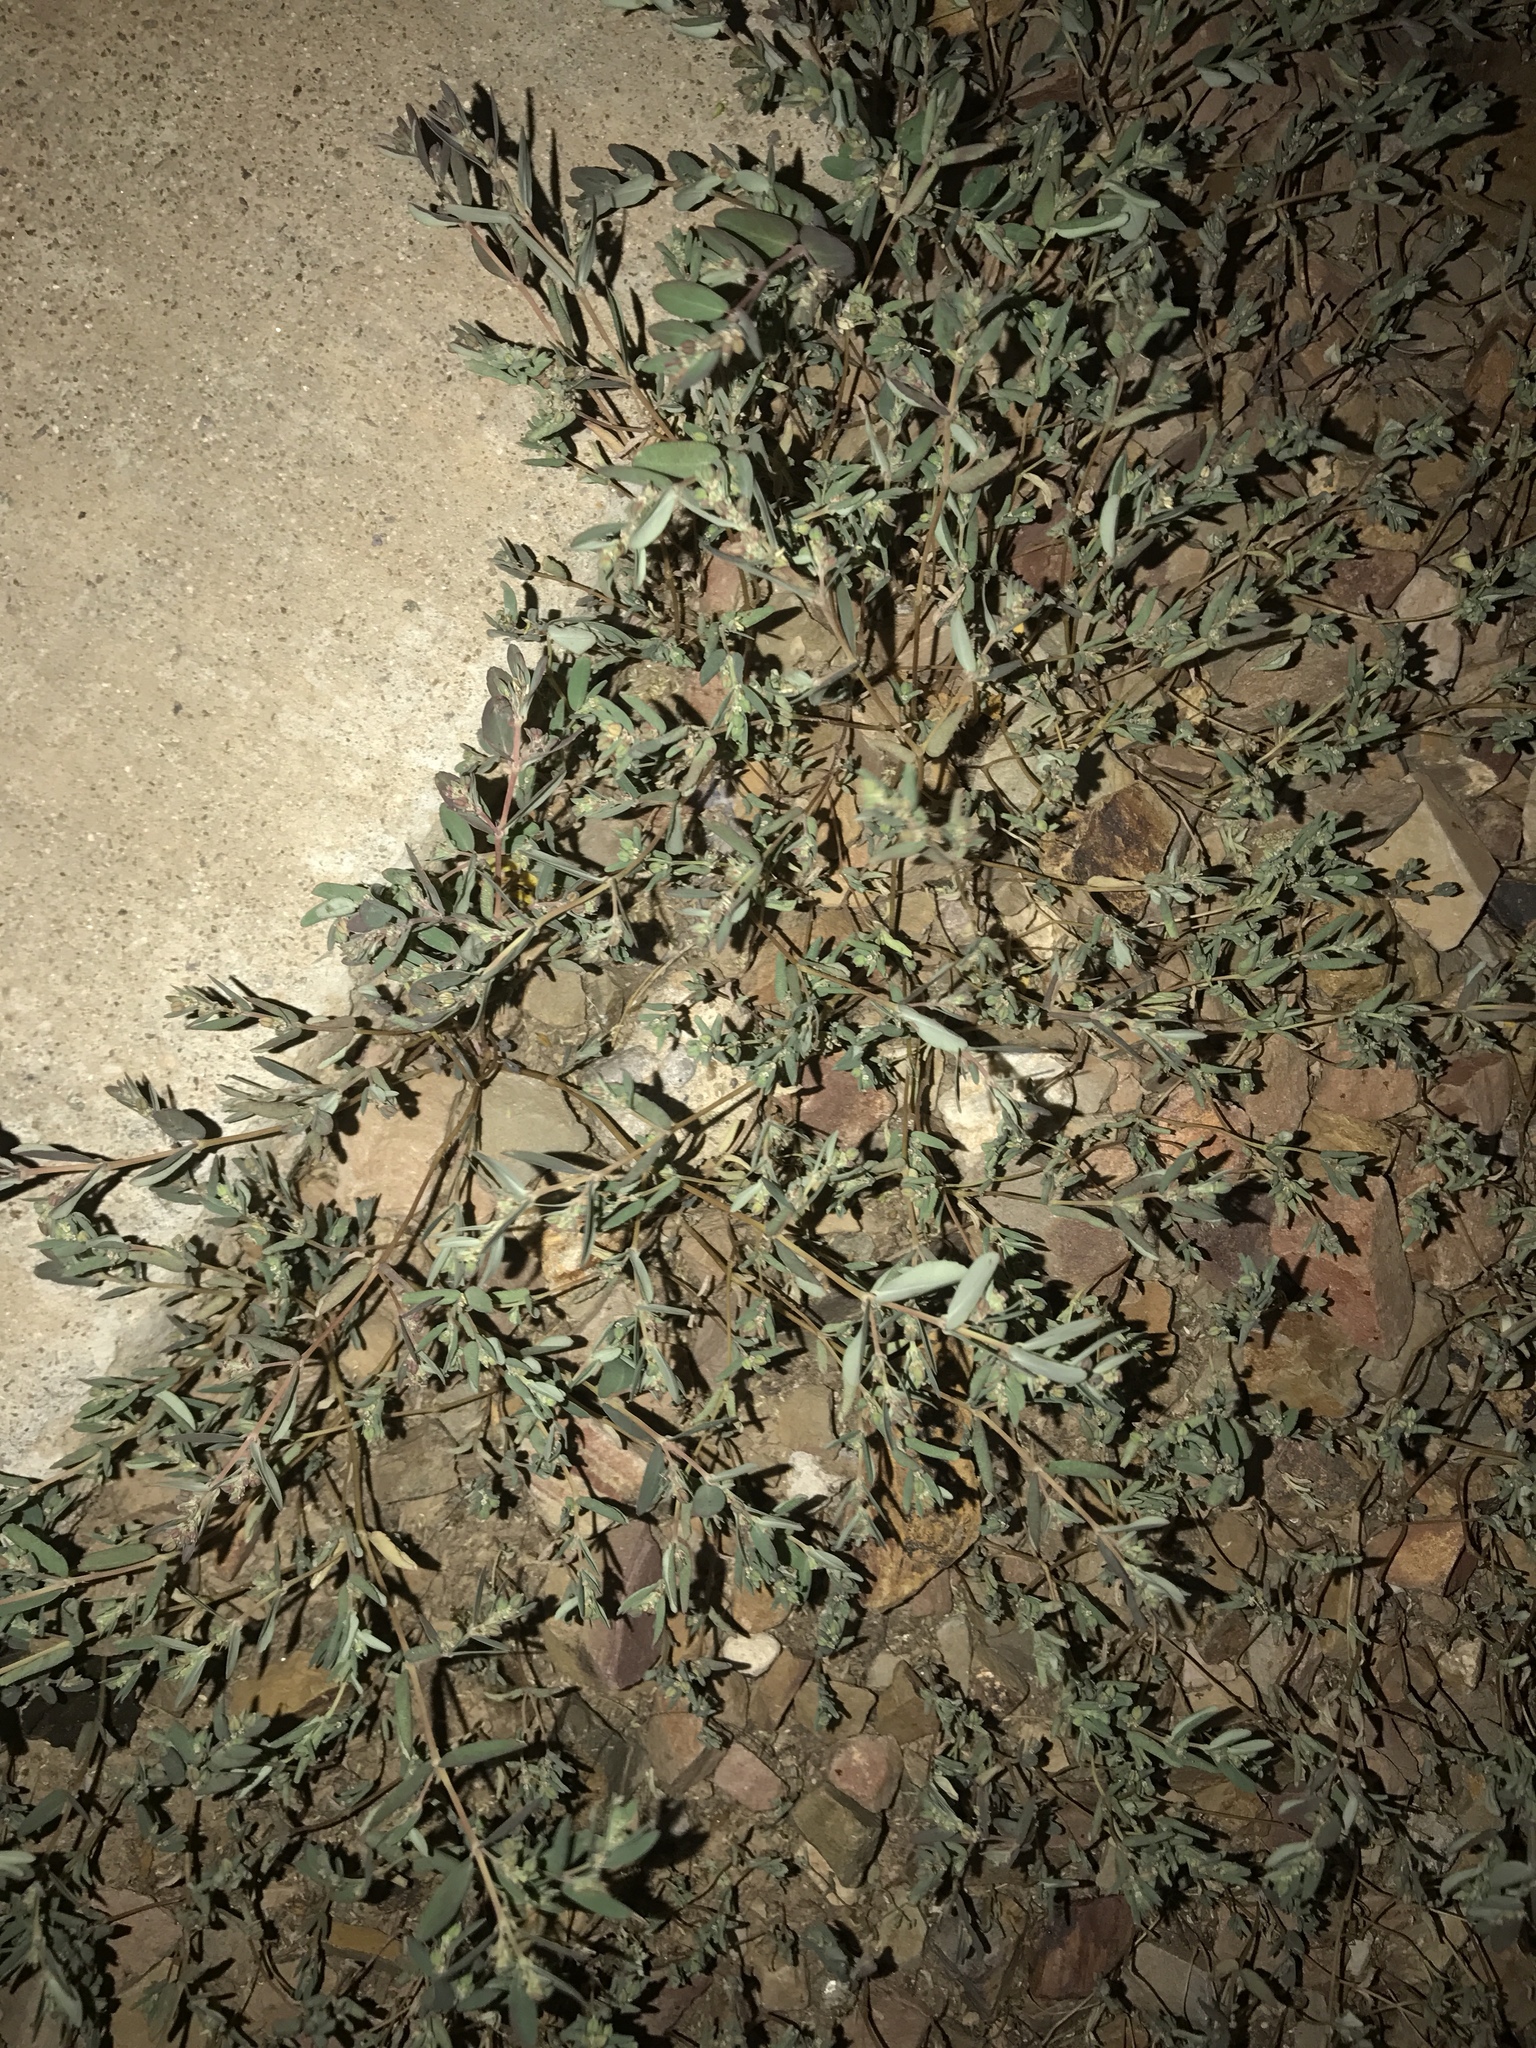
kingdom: Plantae
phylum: Tracheophyta
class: Magnoliopsida
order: Malpighiales
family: Euphorbiaceae
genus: Euphorbia
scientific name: Euphorbia abramsiana
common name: Abram's spurge
